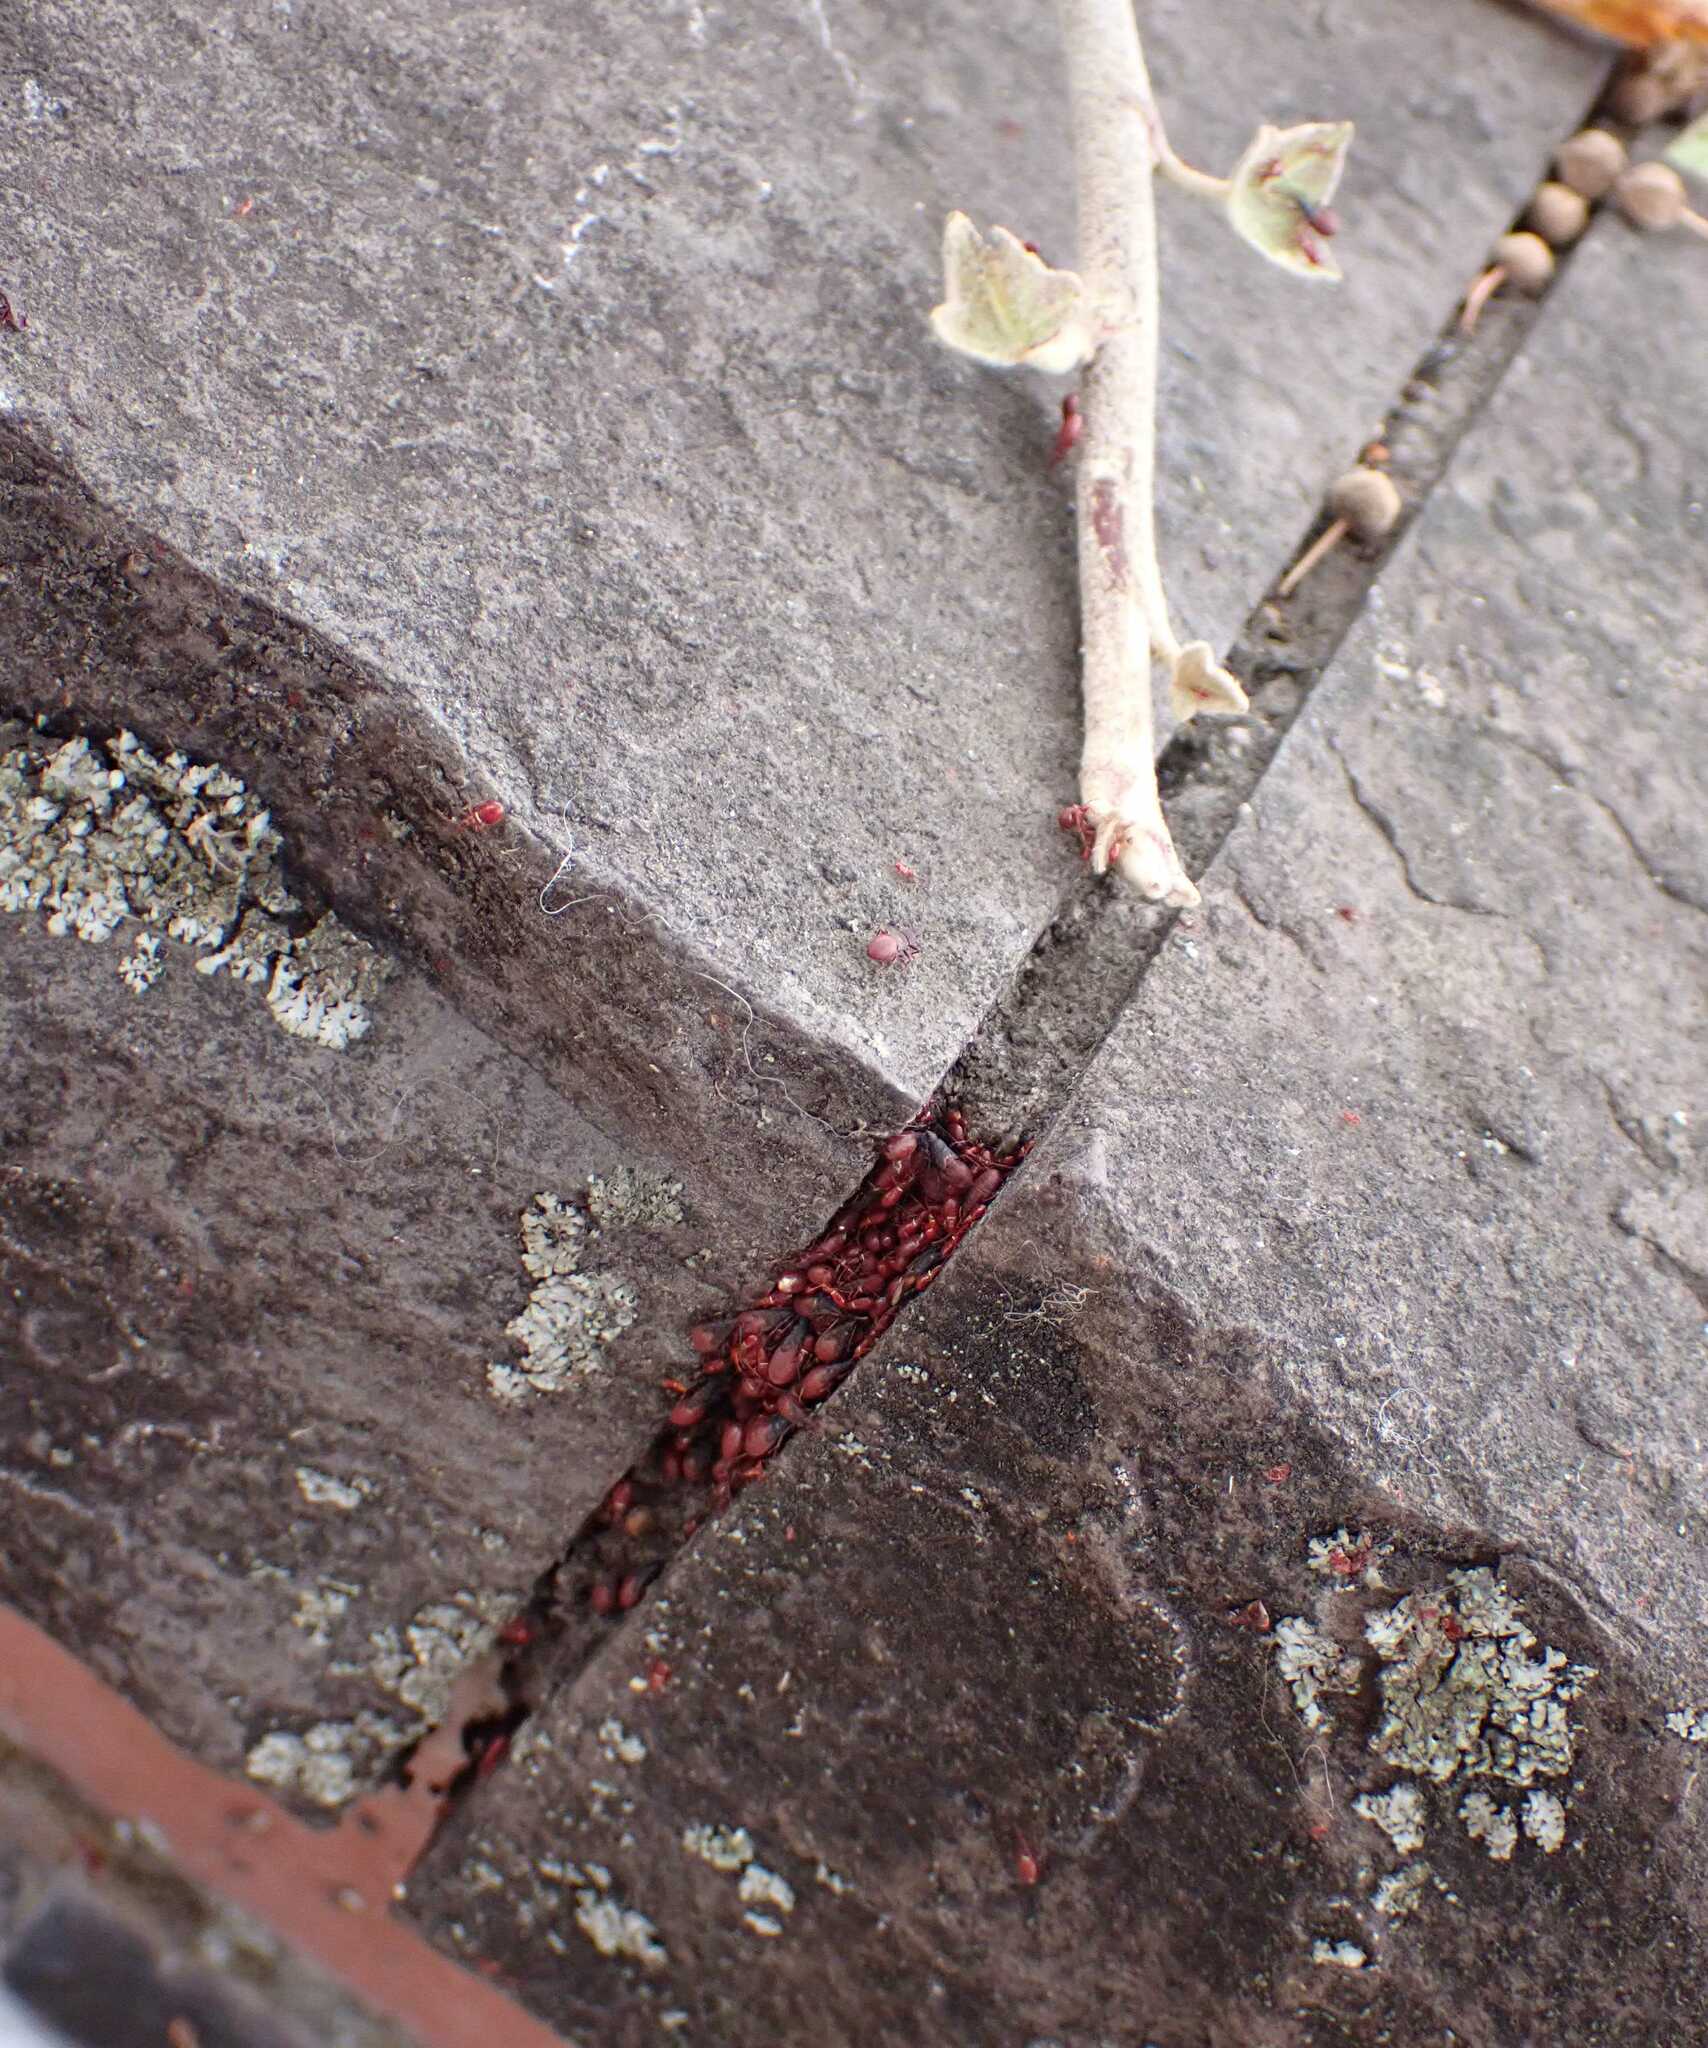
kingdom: Animalia
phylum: Arthropoda
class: Insecta
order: Hemiptera
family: Oxycarenidae
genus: Oxycarenus
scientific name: Oxycarenus lavaterae
